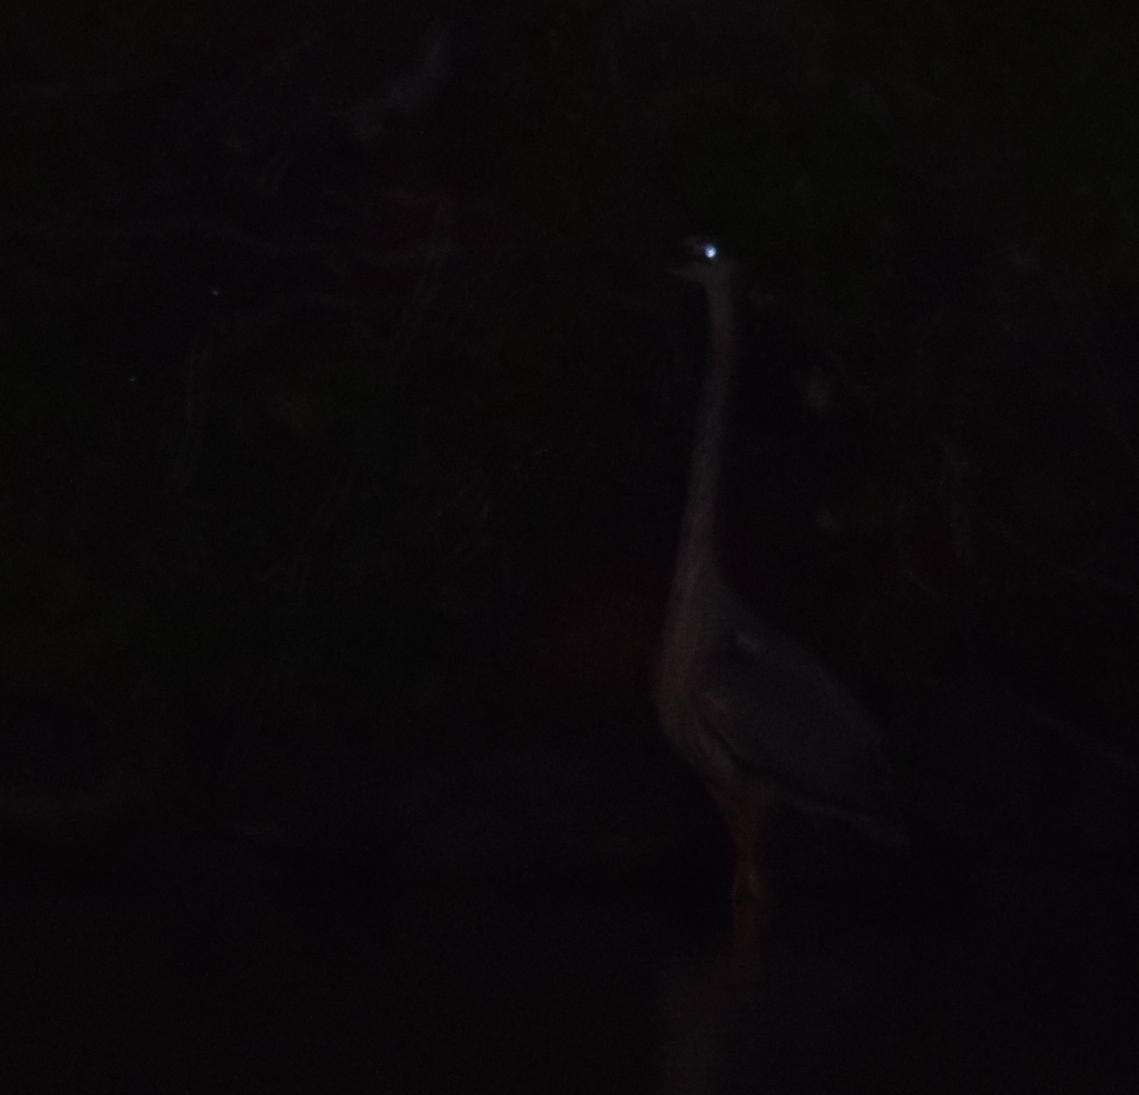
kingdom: Animalia
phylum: Chordata
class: Aves
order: Pelecaniformes
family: Ardeidae
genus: Ardea
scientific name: Ardea herodias
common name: Great blue heron
